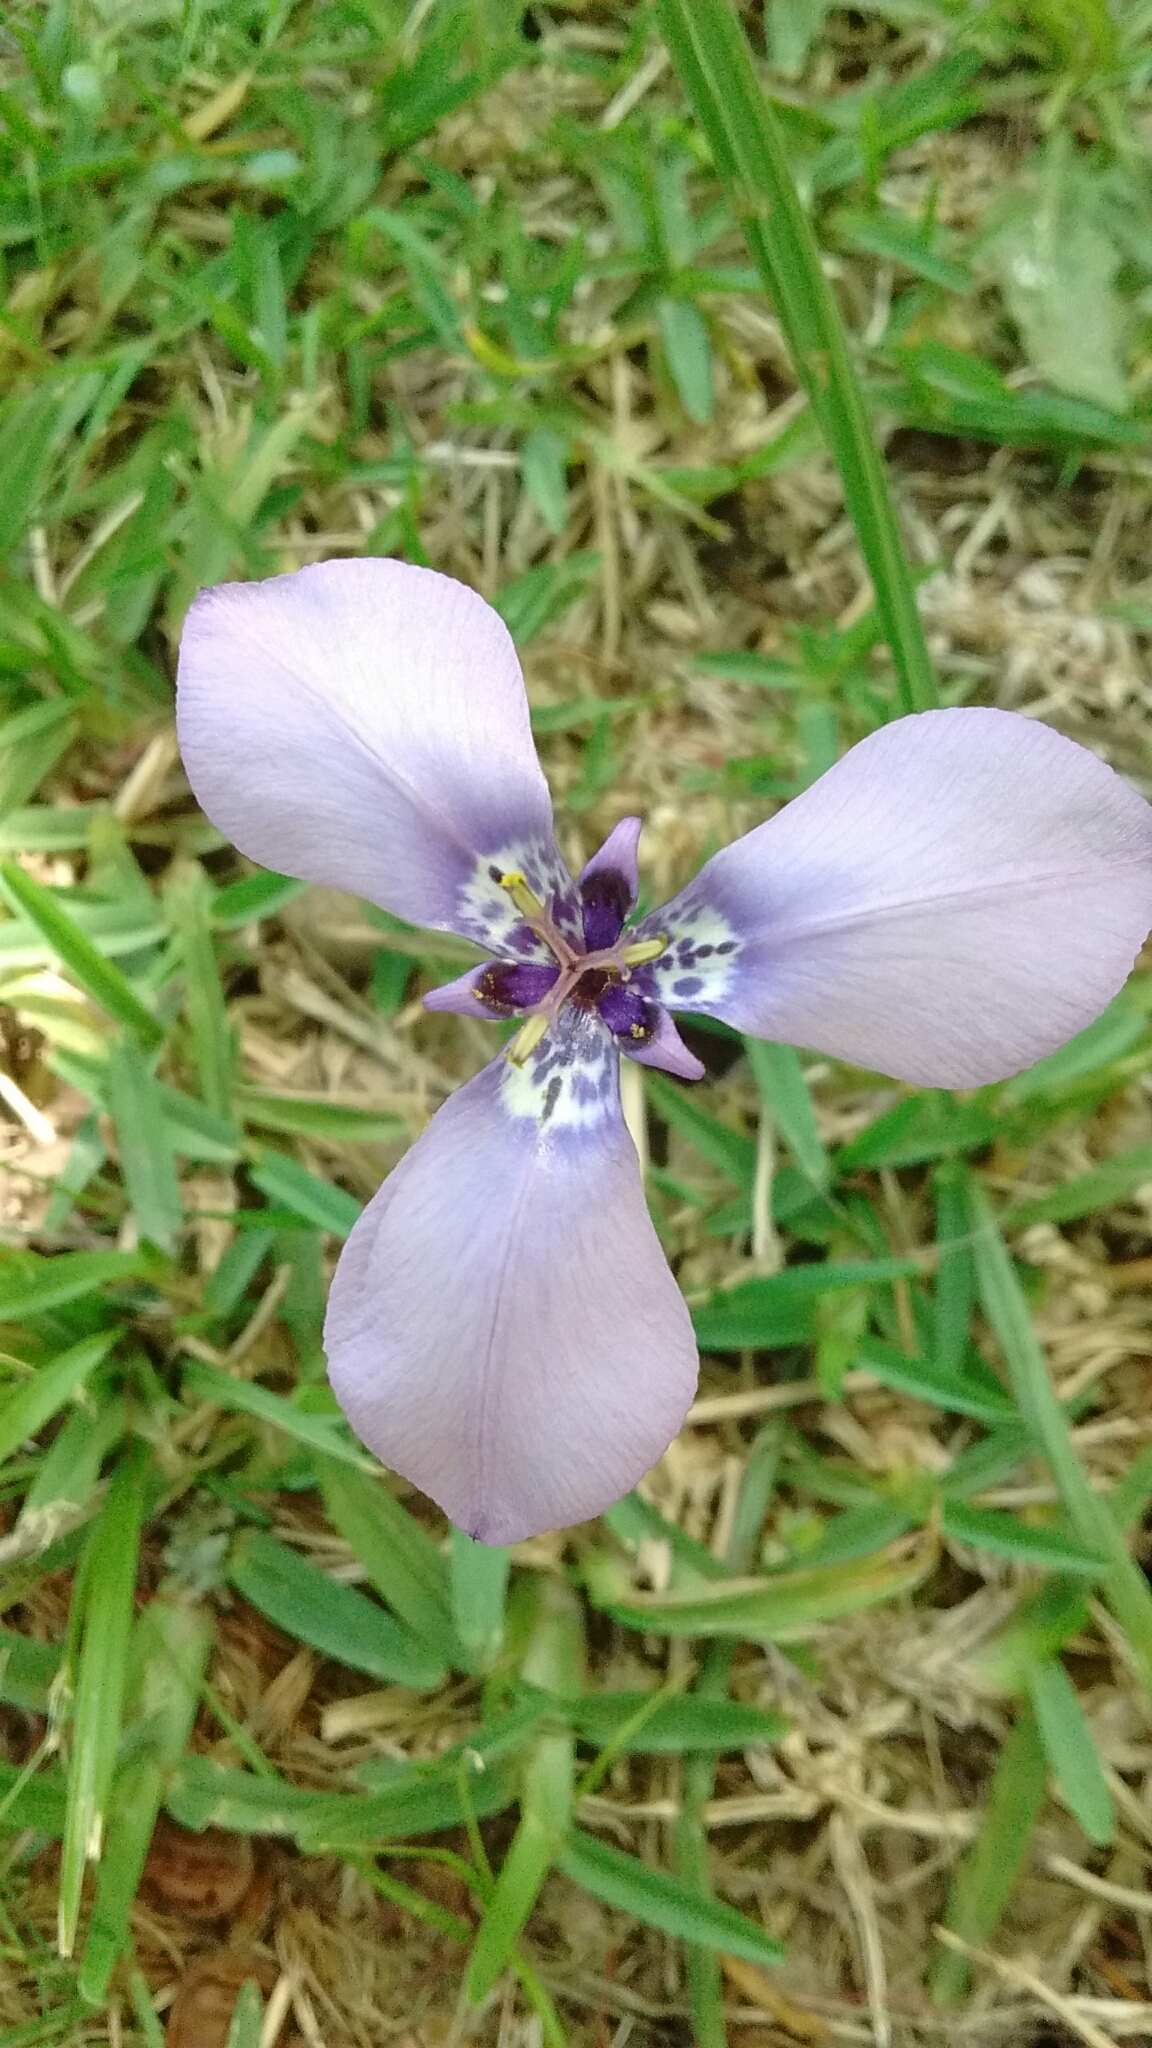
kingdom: Plantae
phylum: Tracheophyta
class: Liliopsida
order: Asparagales
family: Iridaceae
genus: Herbertia
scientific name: Herbertia lahue
